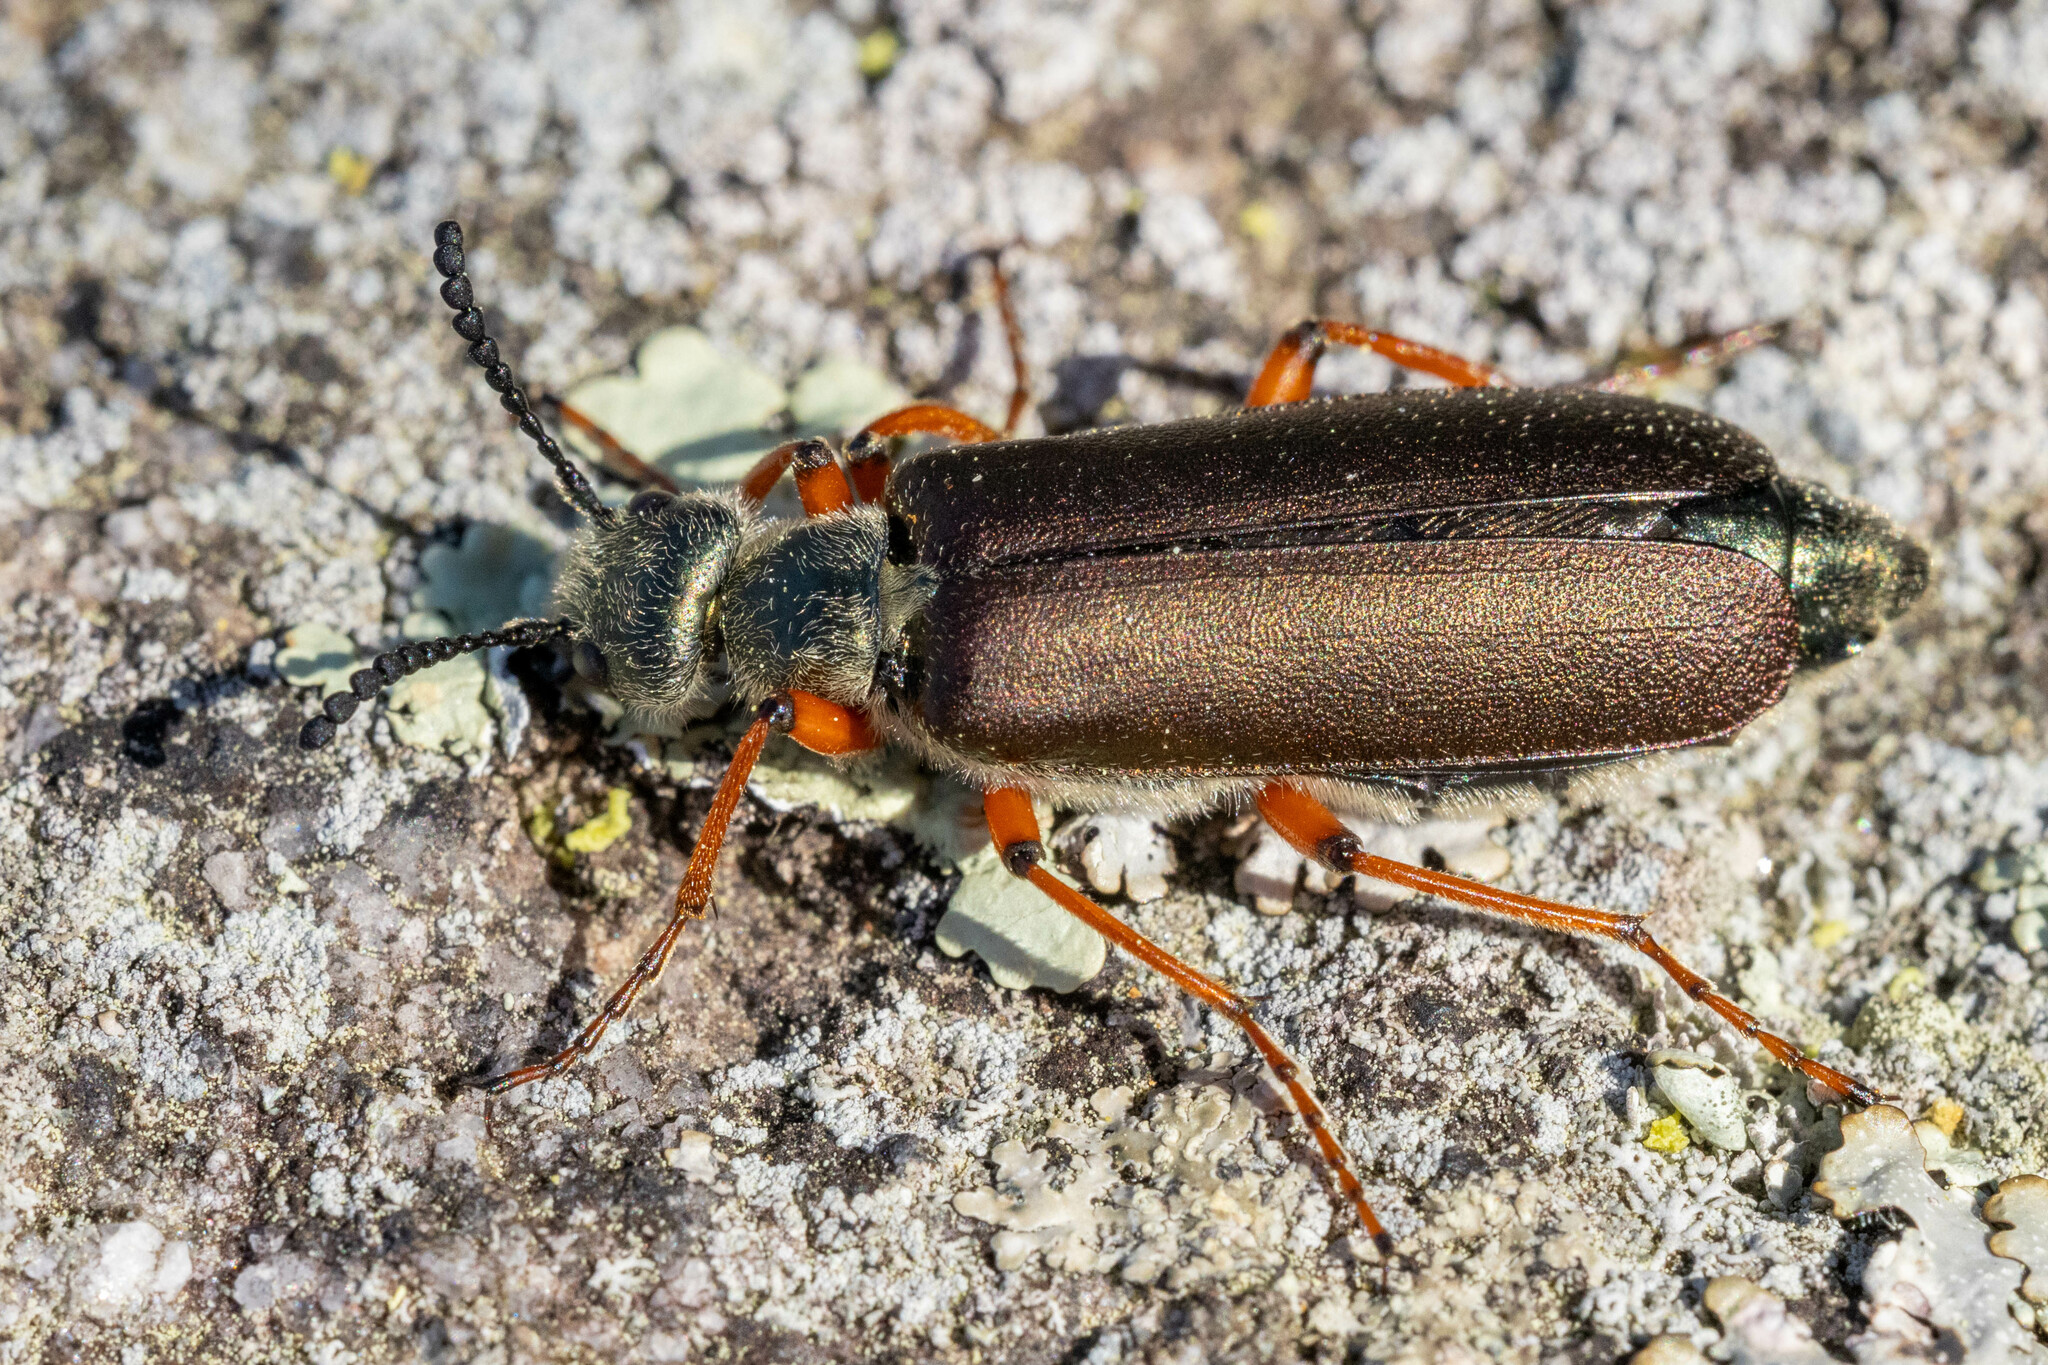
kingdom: Animalia
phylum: Arthropoda
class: Insecta
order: Coleoptera
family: Meloidae
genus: Lytta
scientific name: Lytta aenea
